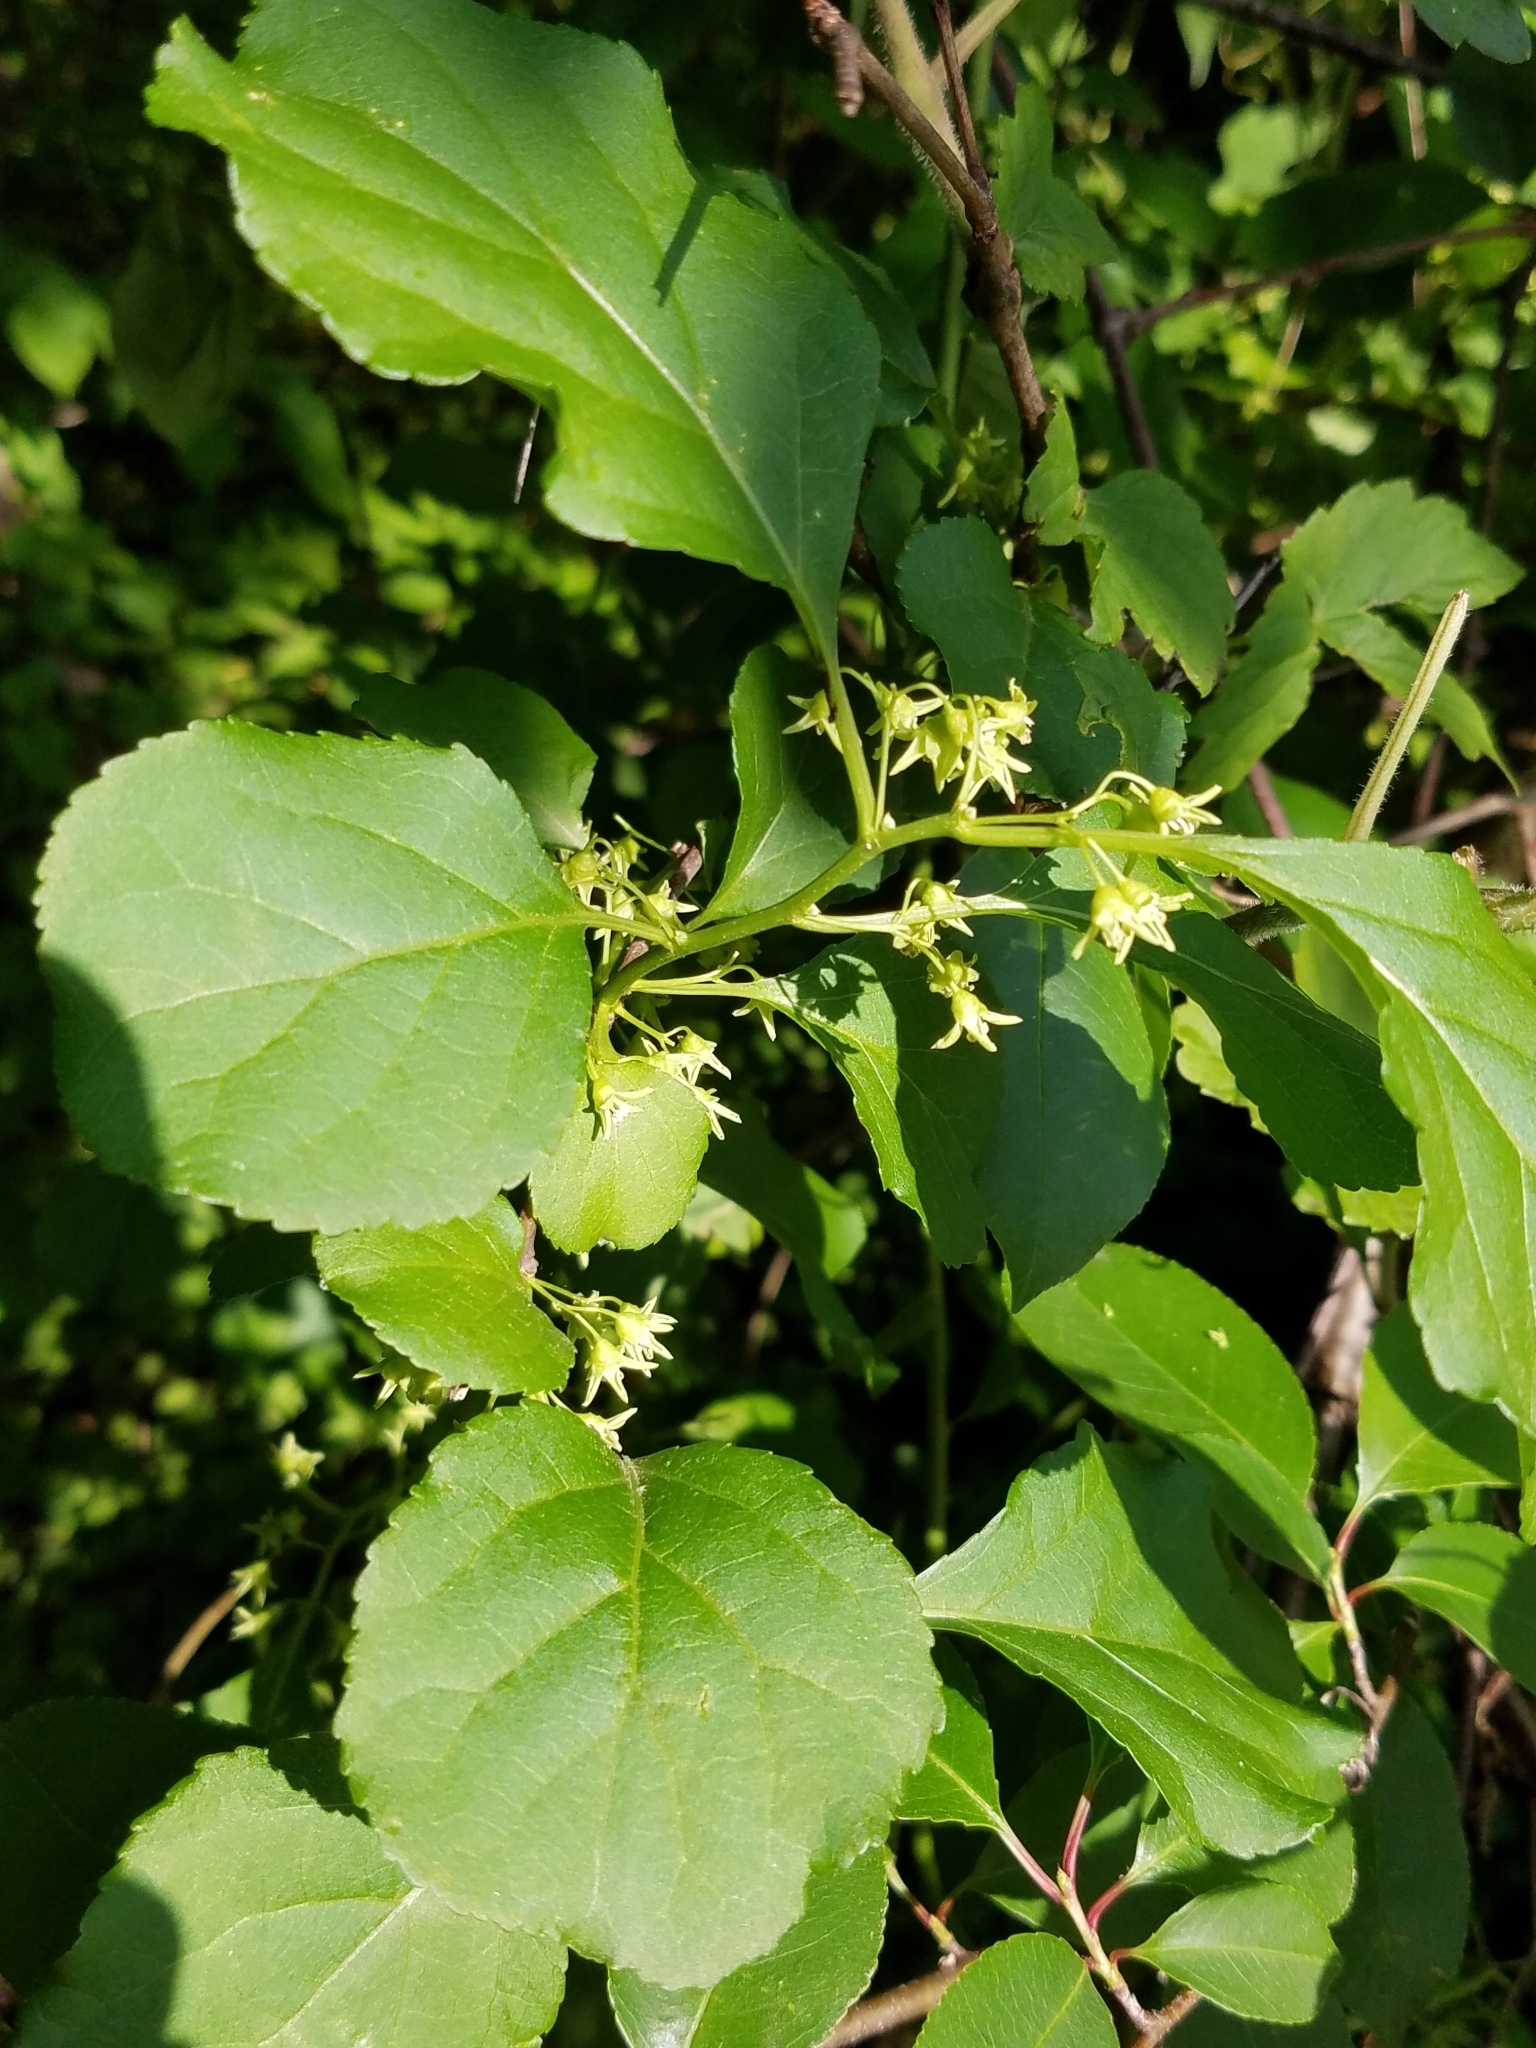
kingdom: Plantae
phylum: Tracheophyta
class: Magnoliopsida
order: Celastrales
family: Celastraceae
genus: Celastrus
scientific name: Celastrus orbiculatus
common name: Oriental bittersweet
